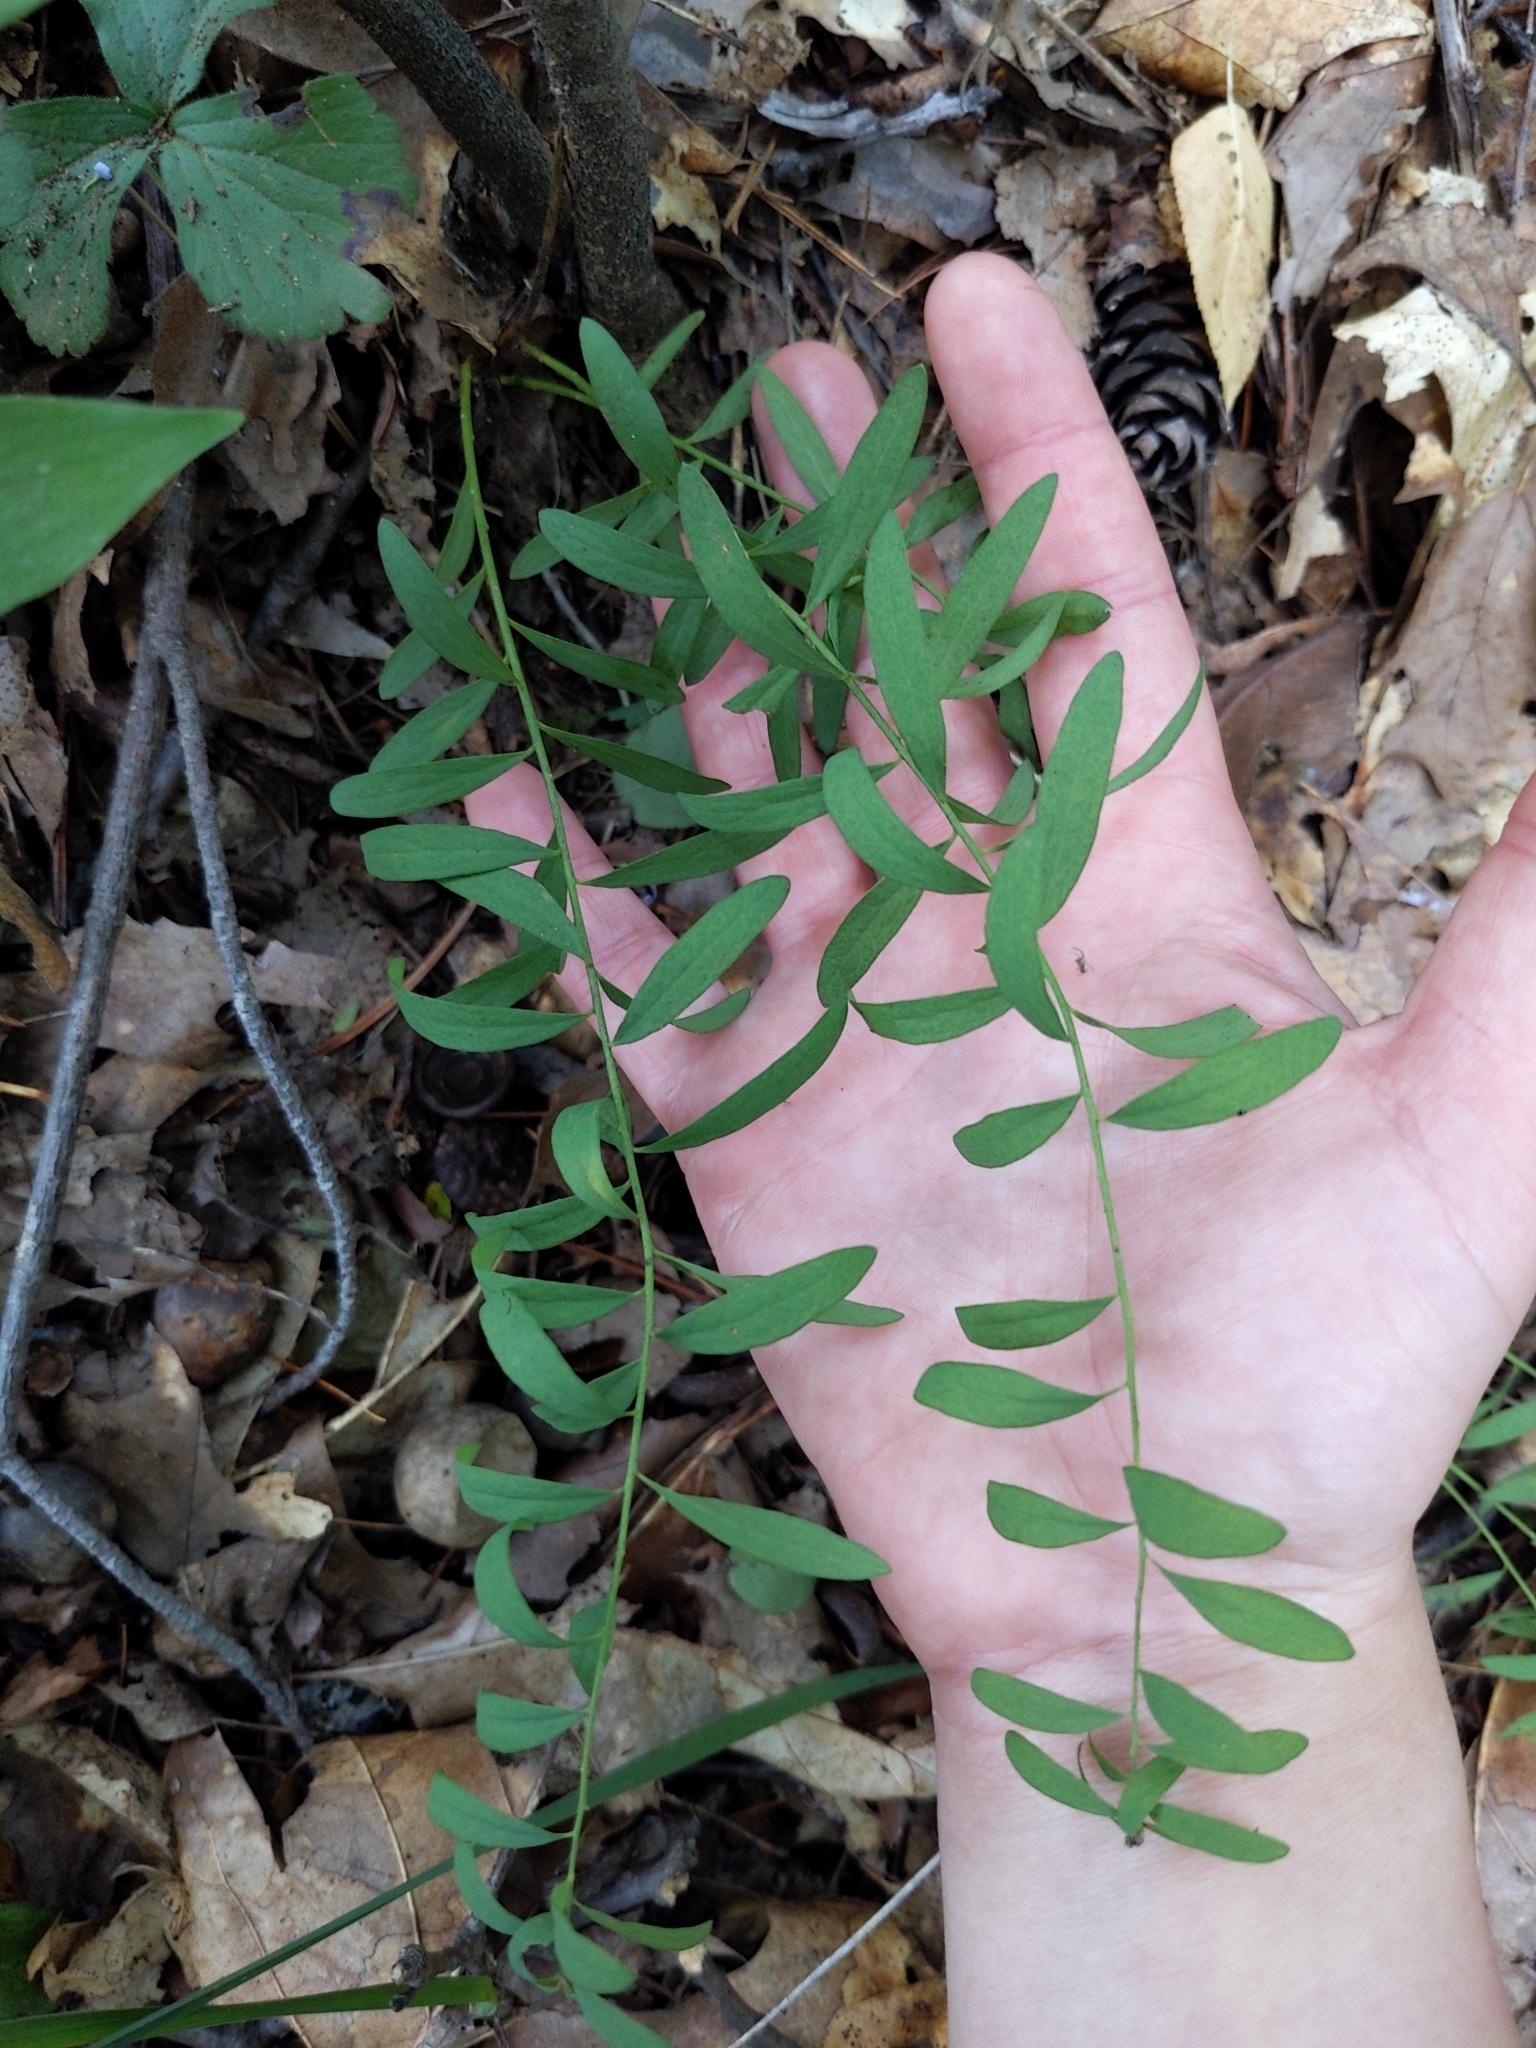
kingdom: Plantae
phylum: Tracheophyta
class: Magnoliopsida
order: Santalales
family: Comandraceae
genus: Comandra
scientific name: Comandra umbellata
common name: Bastard toadflax
